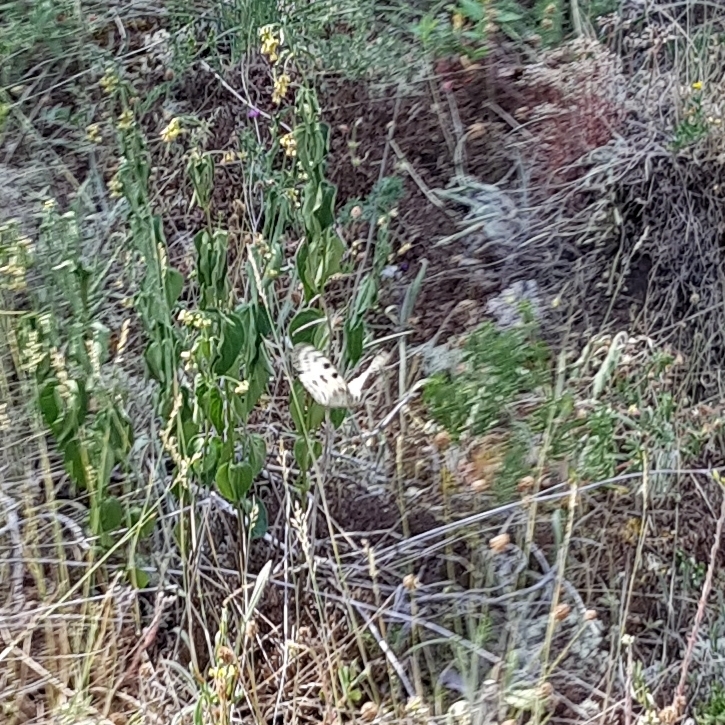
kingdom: Animalia
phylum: Arthropoda
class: Insecta
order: Lepidoptera
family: Papilionidae
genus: Parnassius
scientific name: Parnassius apollo
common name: Apollo
